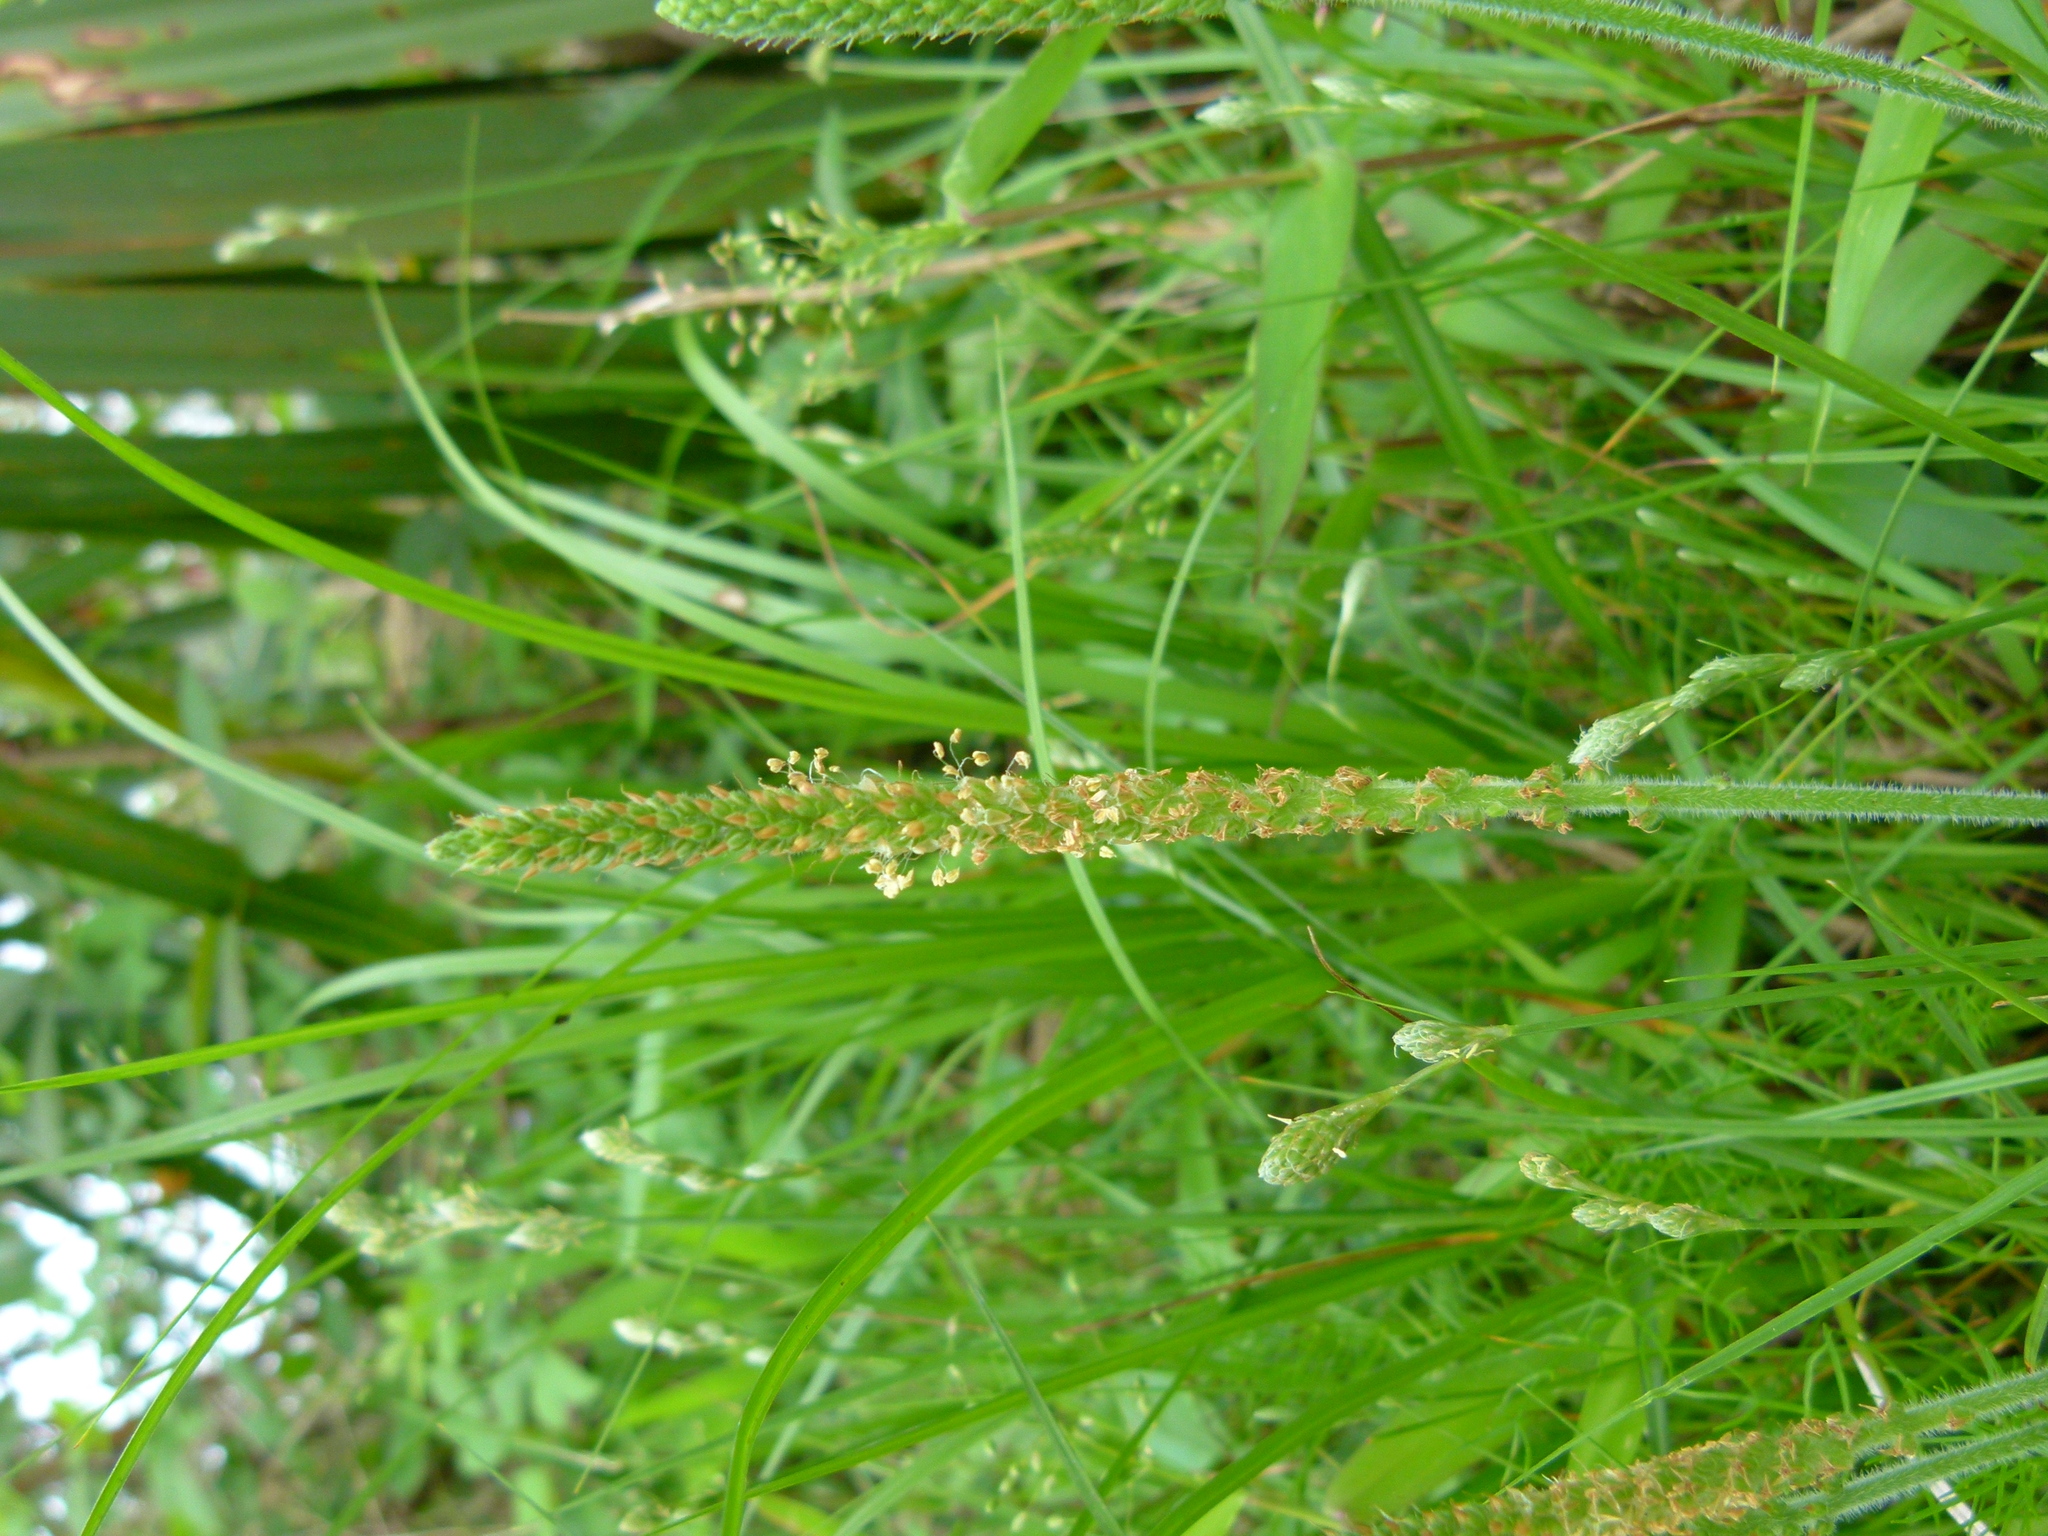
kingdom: Plantae
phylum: Tracheophyta
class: Magnoliopsida
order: Lamiales
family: Plantaginaceae
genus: Plantago
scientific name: Plantago virginica
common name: Hoary plantain
